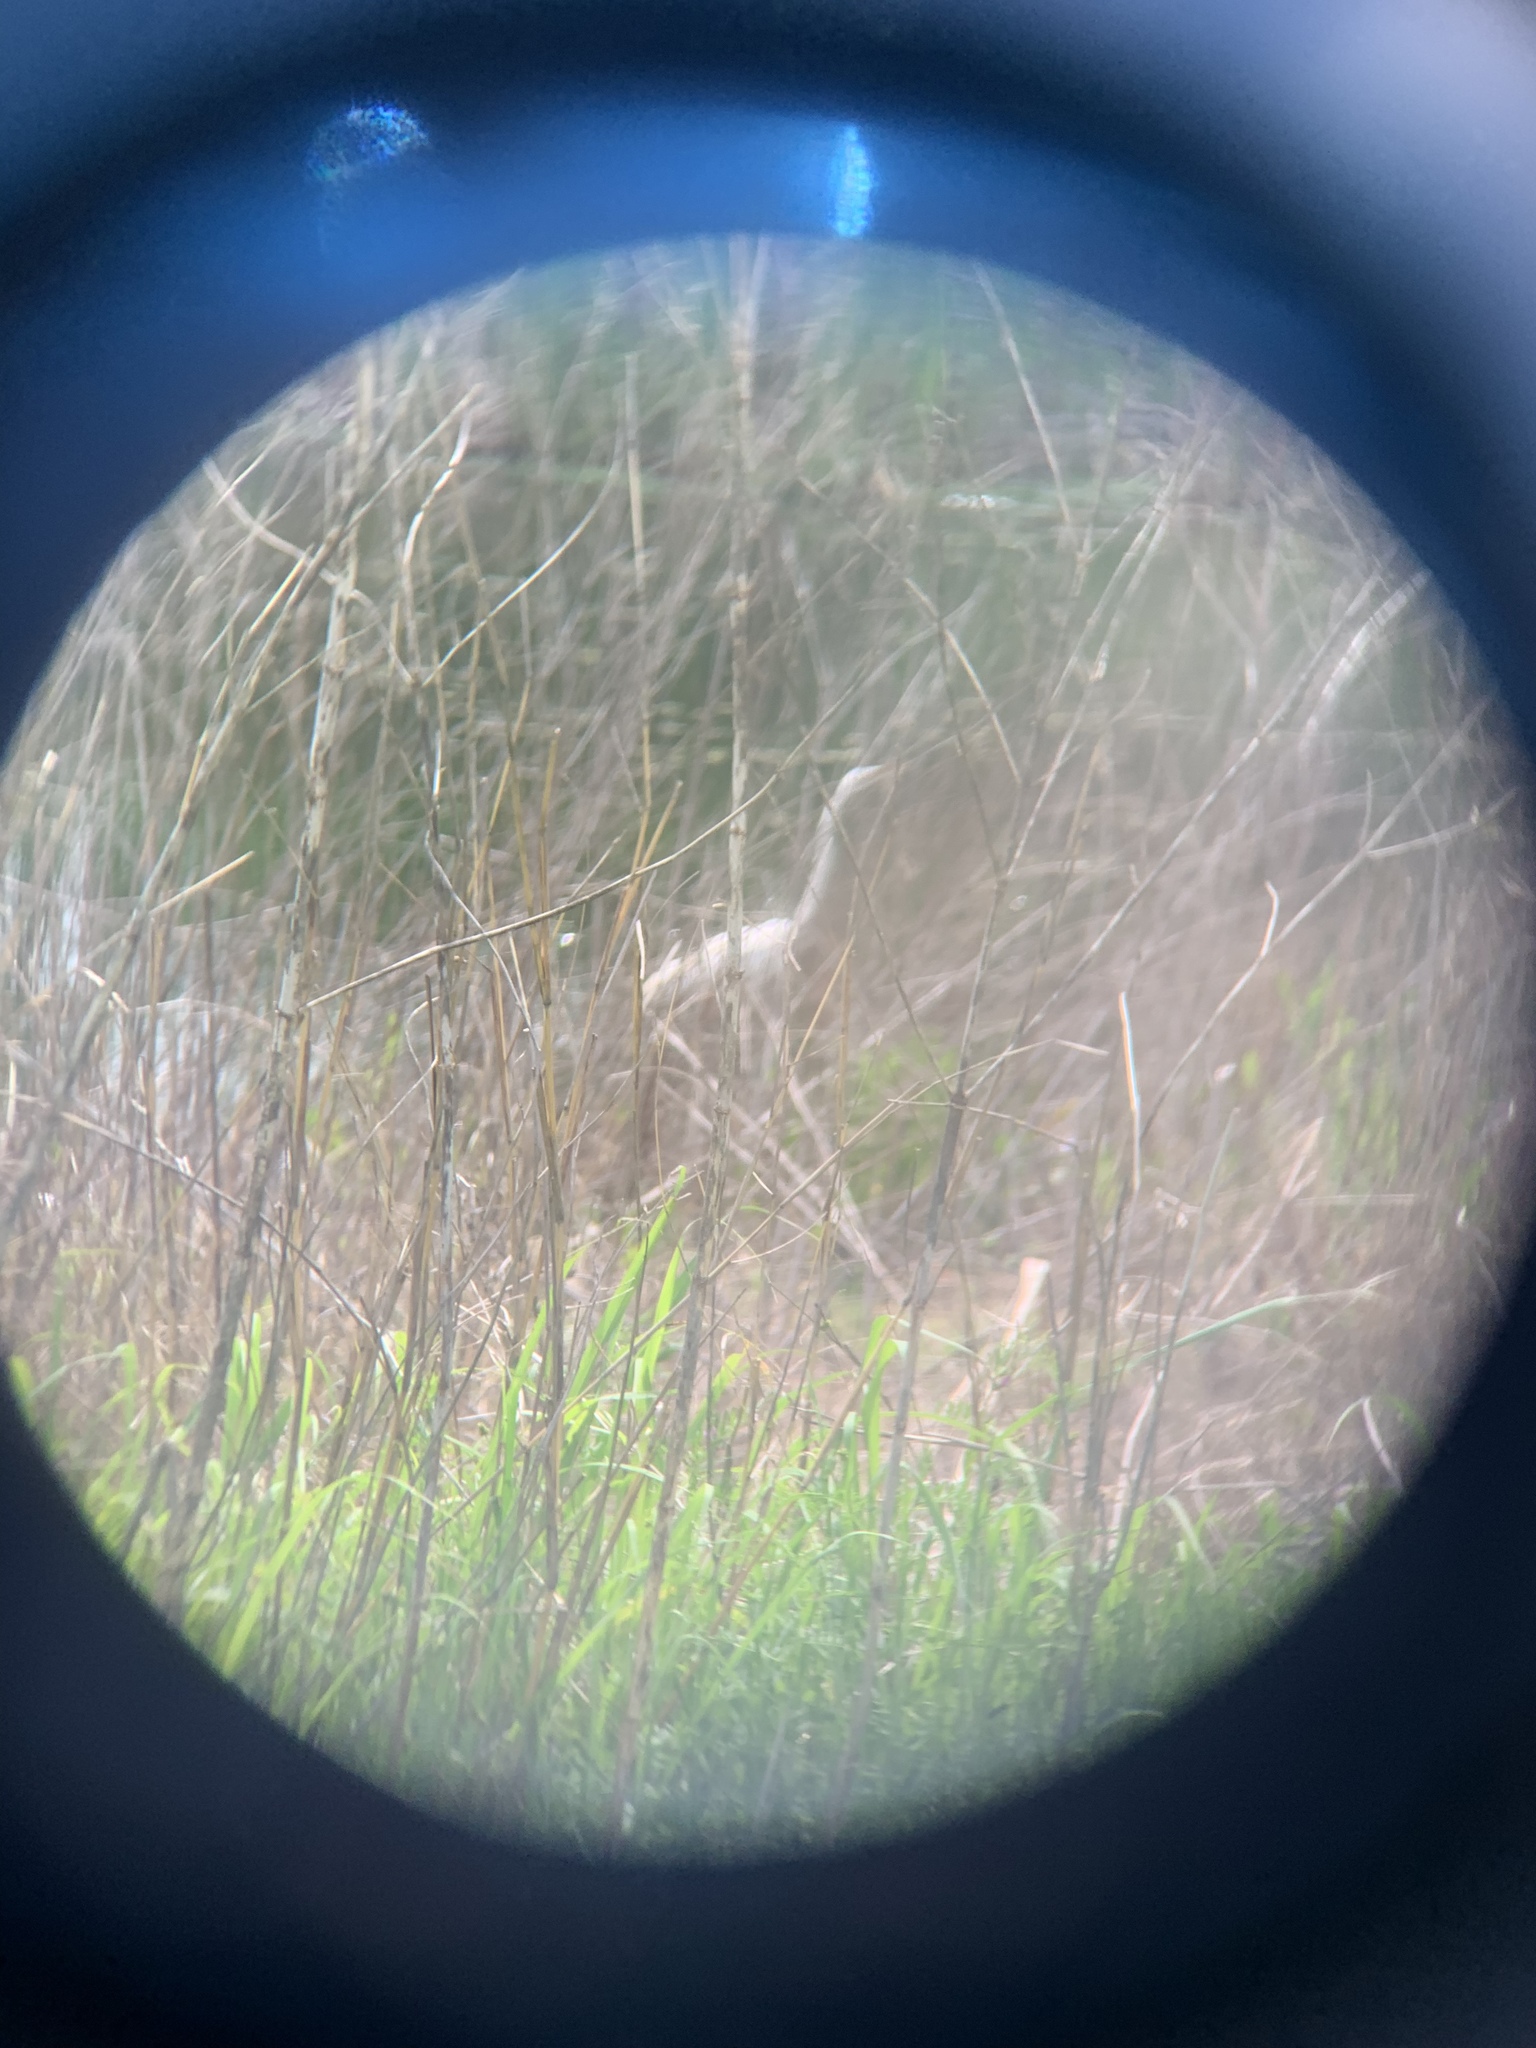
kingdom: Animalia
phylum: Chordata
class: Aves
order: Pelecaniformes
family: Ardeidae
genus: Ardea
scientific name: Ardea alba
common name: Great egret
